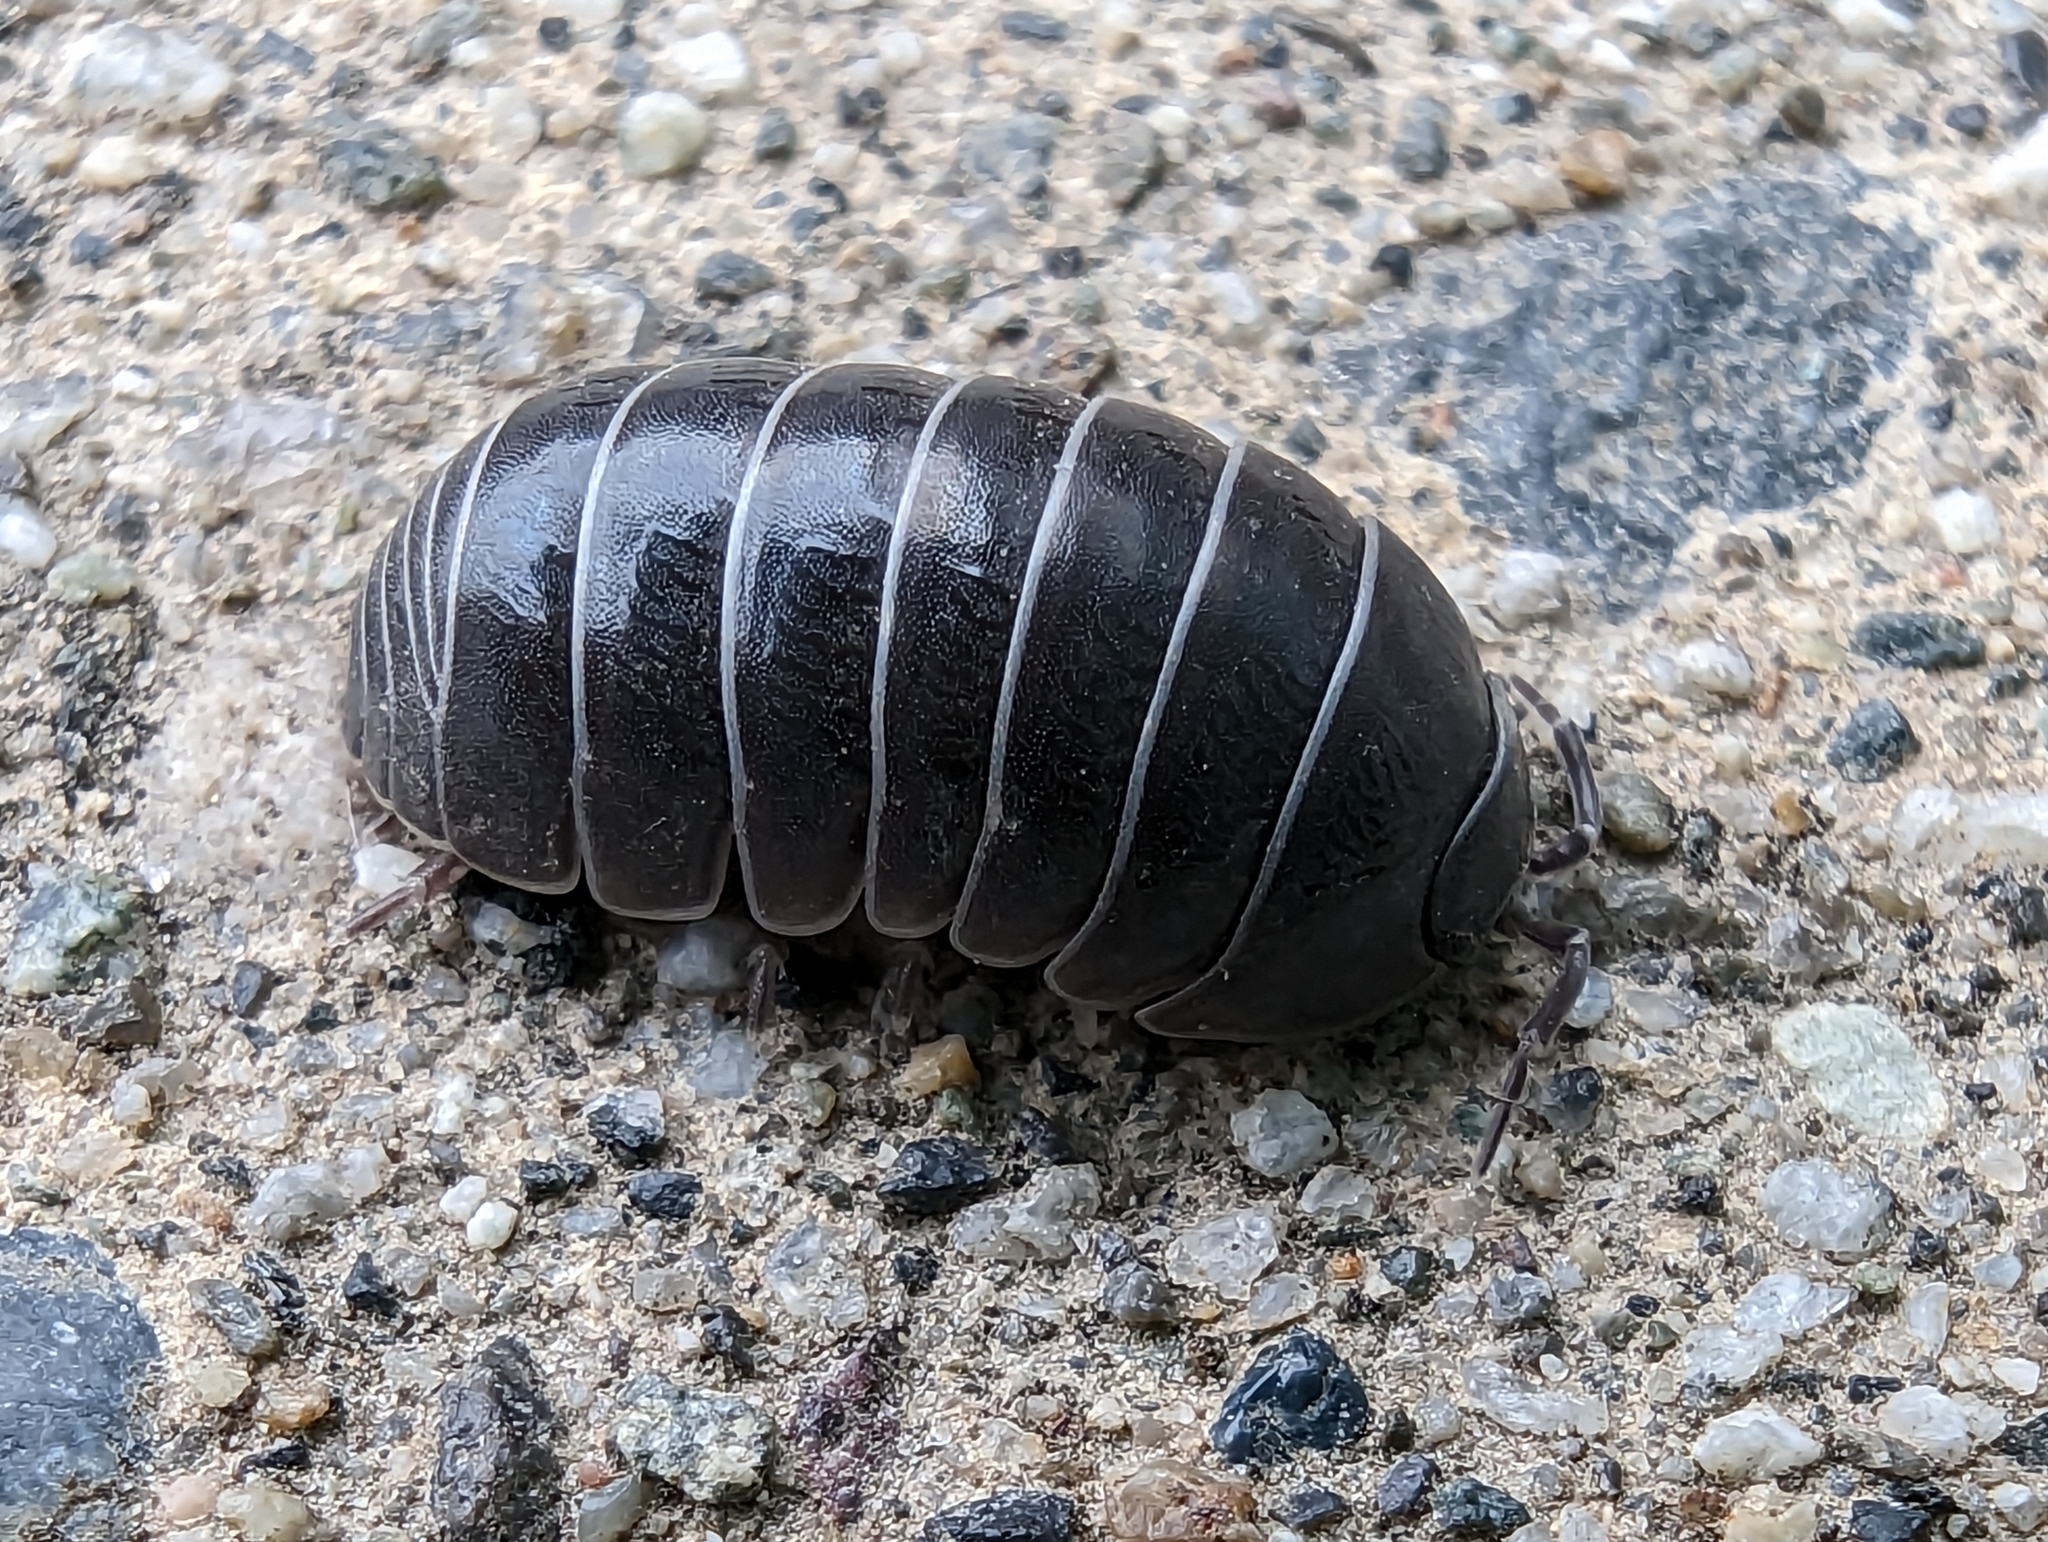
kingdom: Animalia
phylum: Arthropoda
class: Malacostraca
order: Isopoda
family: Armadillidiidae
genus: Armadillidium
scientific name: Armadillidium vulgare
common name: Common pill woodlouse
